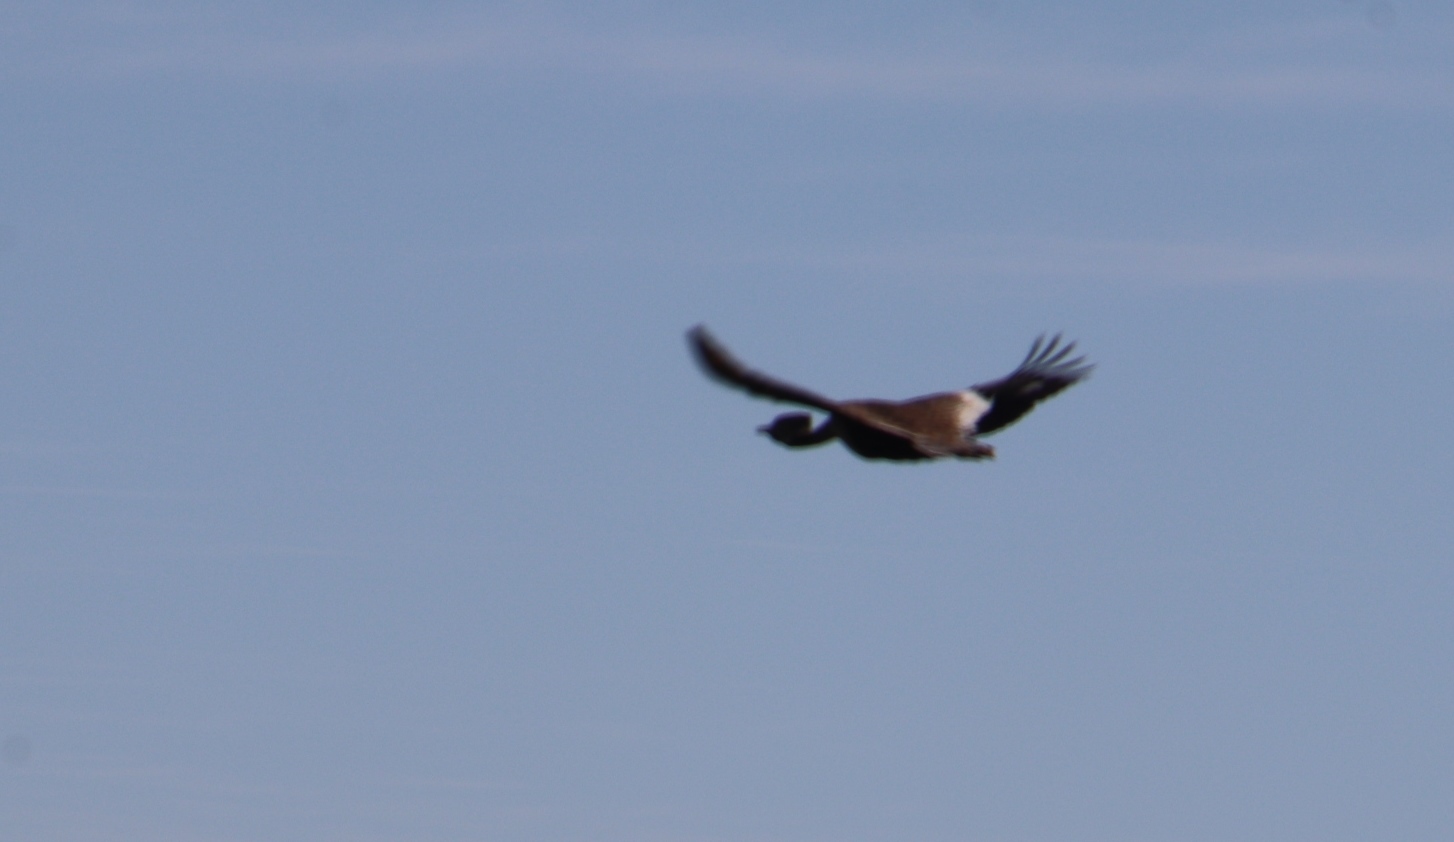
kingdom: Animalia
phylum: Chordata
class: Aves
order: Otidiformes
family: Otididae
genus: Afrotis
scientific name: Afrotis afra
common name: Southern black korhaan
